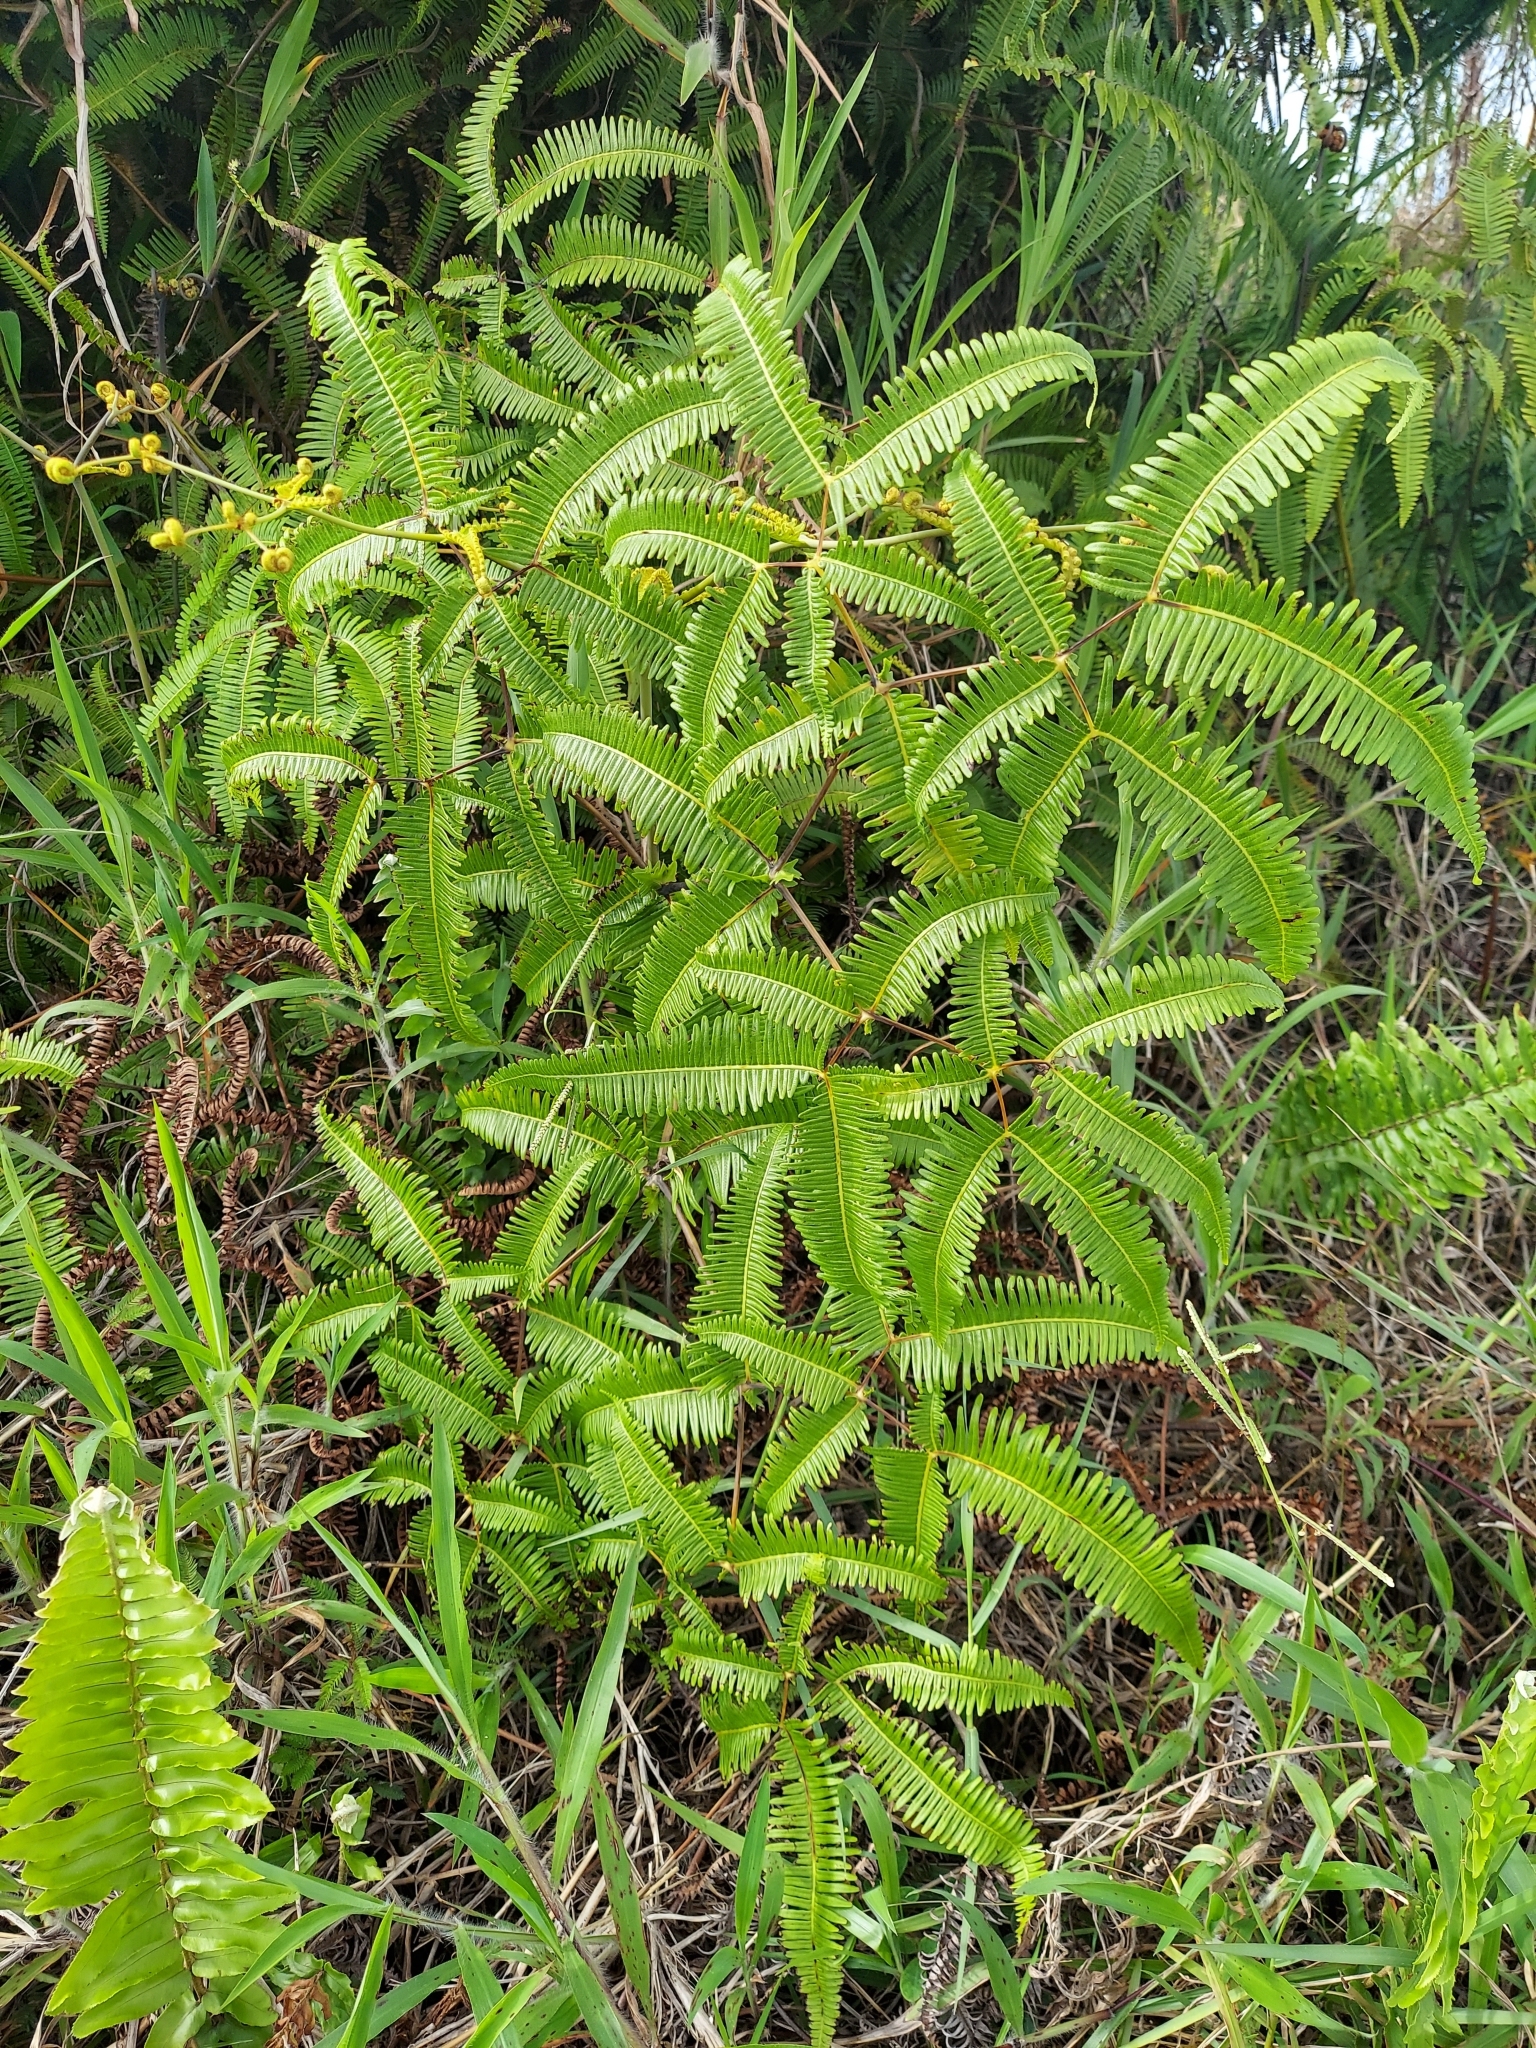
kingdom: Plantae
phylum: Tracheophyta
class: Polypodiopsida
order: Gleicheniales
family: Gleicheniaceae
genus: Dicranopteris
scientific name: Dicranopteris linearis
